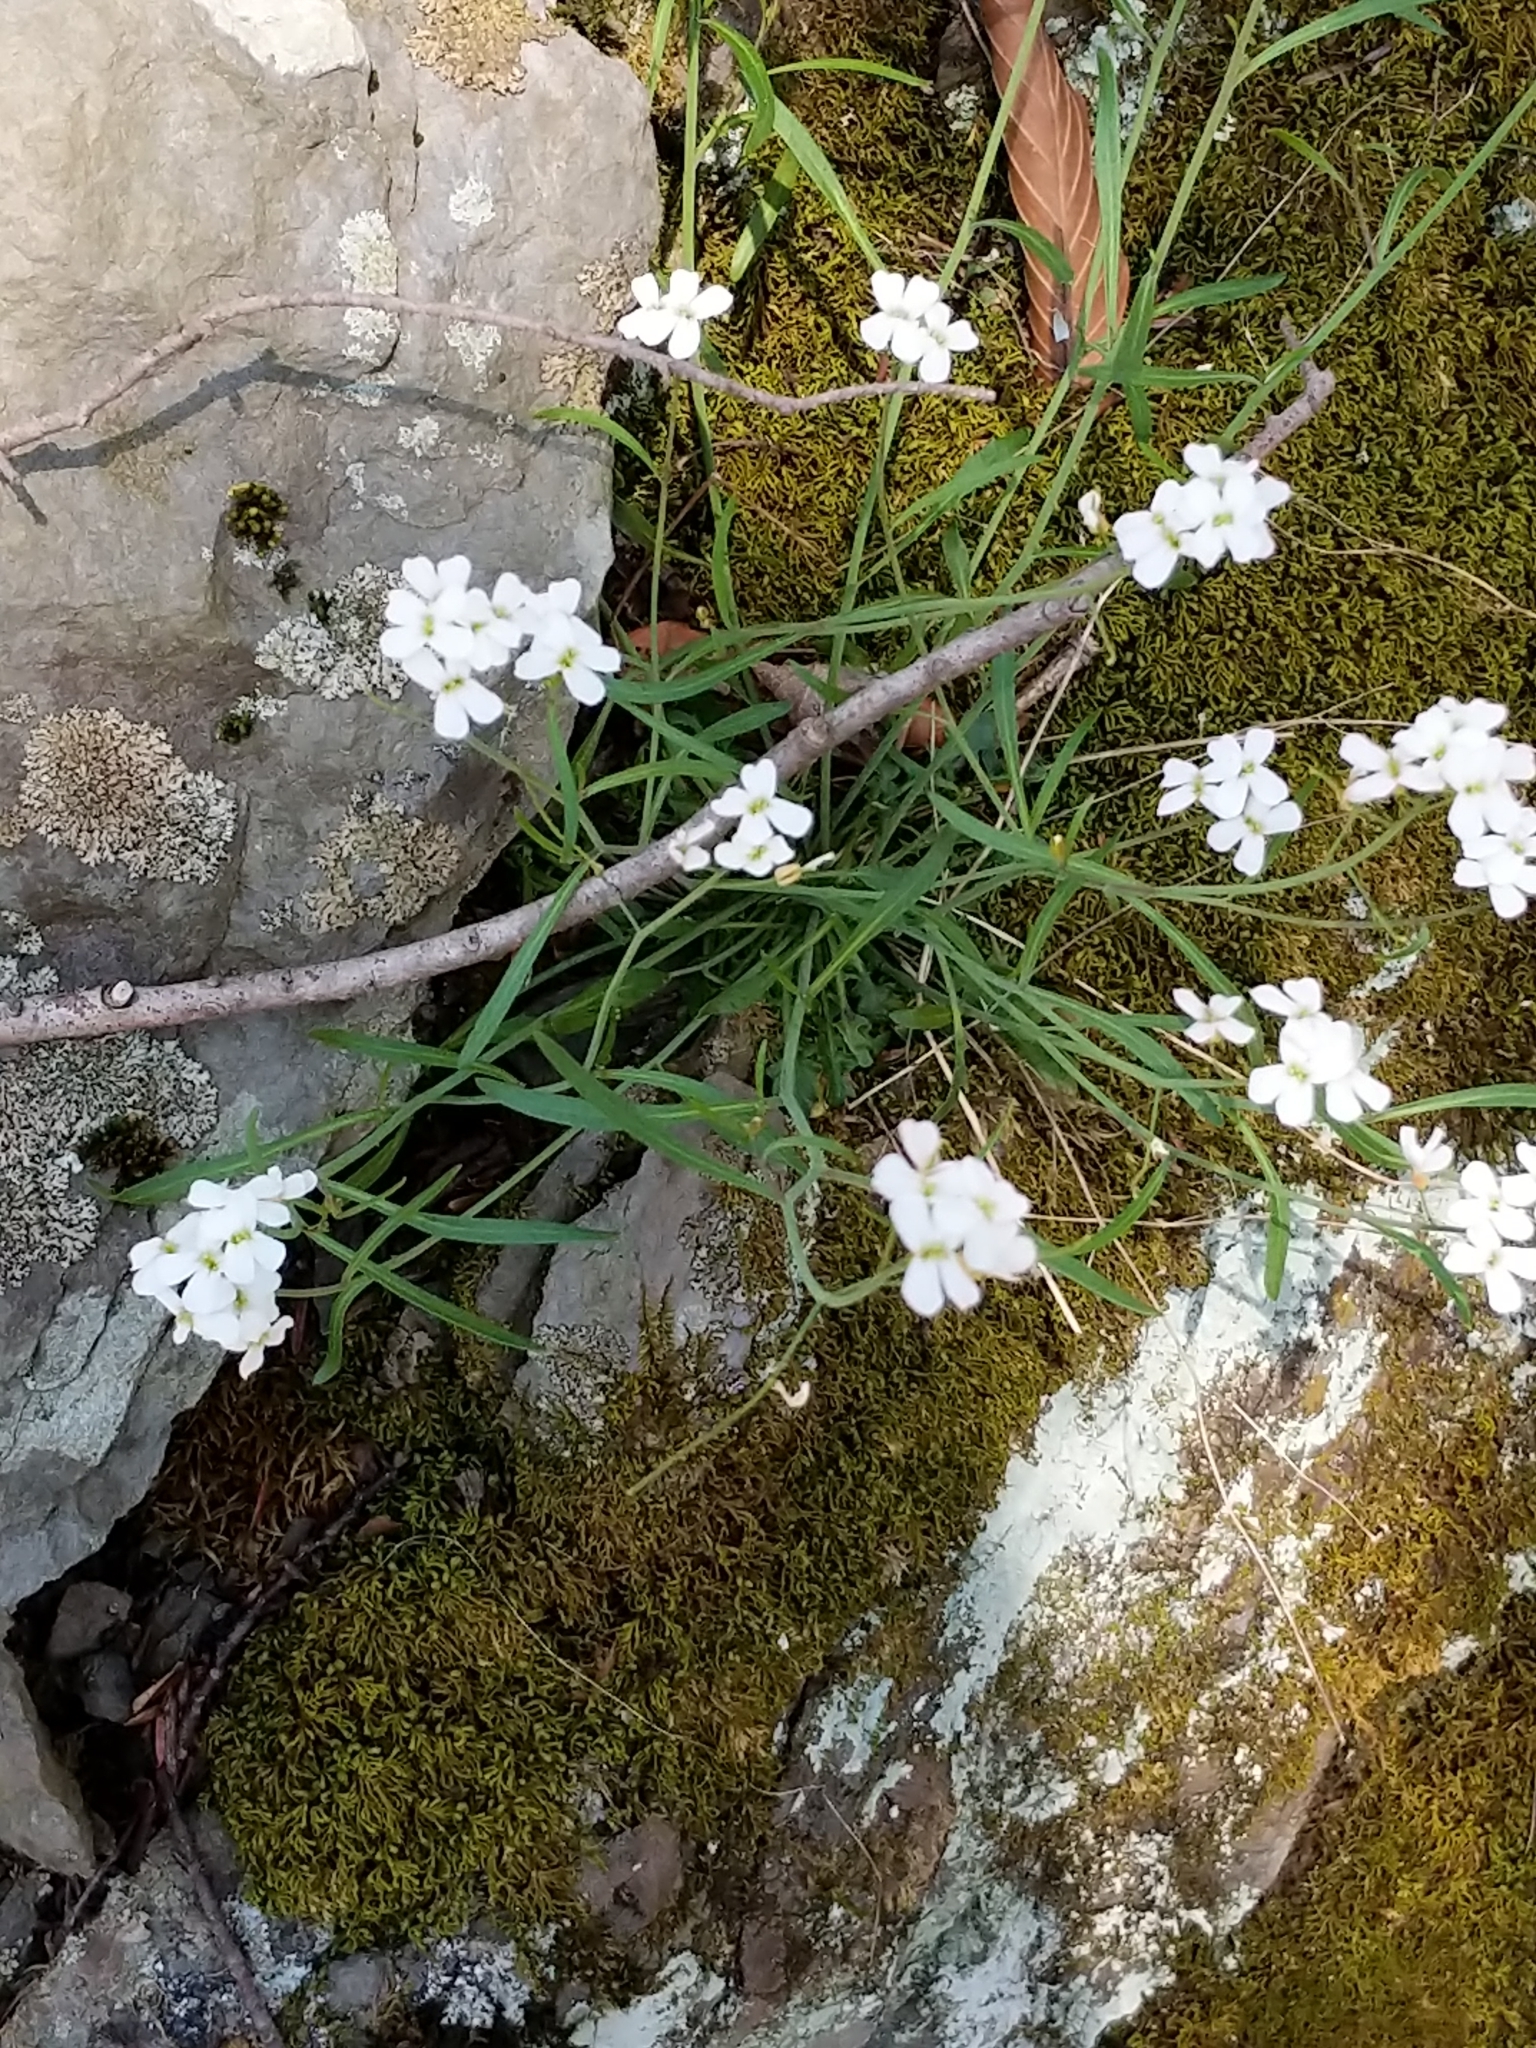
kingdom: Plantae
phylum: Tracheophyta
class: Magnoliopsida
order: Brassicales
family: Brassicaceae
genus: Arabidopsis
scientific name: Arabidopsis lyrata
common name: Lyrate rockcress
